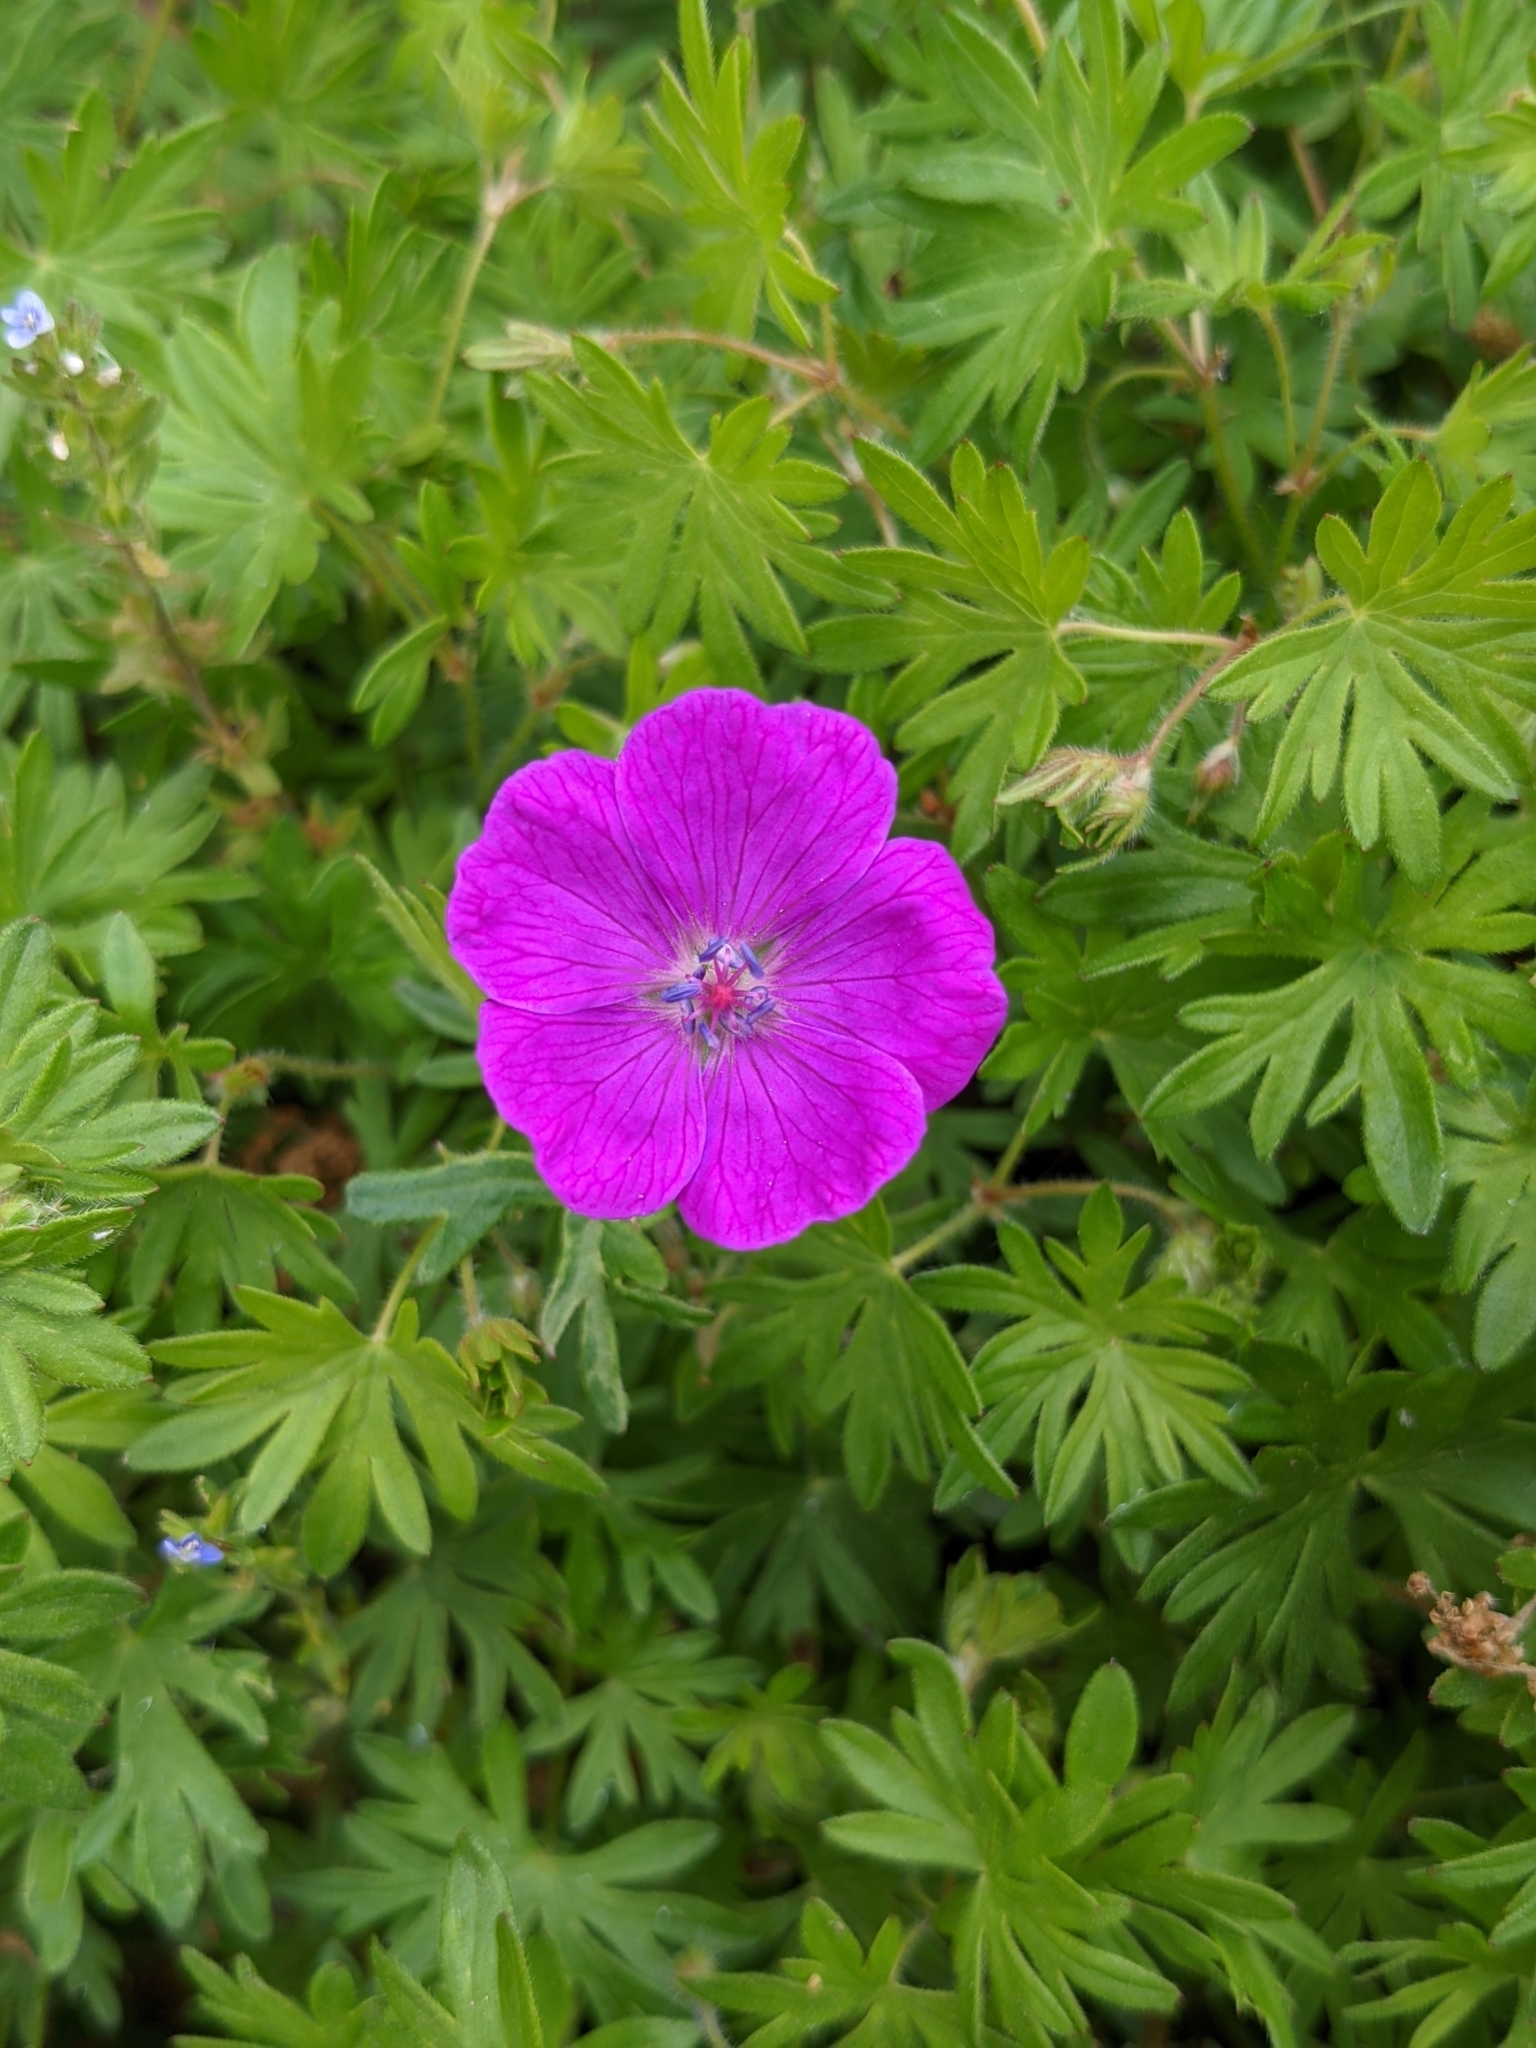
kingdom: Plantae
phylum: Tracheophyta
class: Magnoliopsida
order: Geraniales
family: Geraniaceae
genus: Geranium
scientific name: Geranium sanguineum
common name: Bloody crane's-bill
